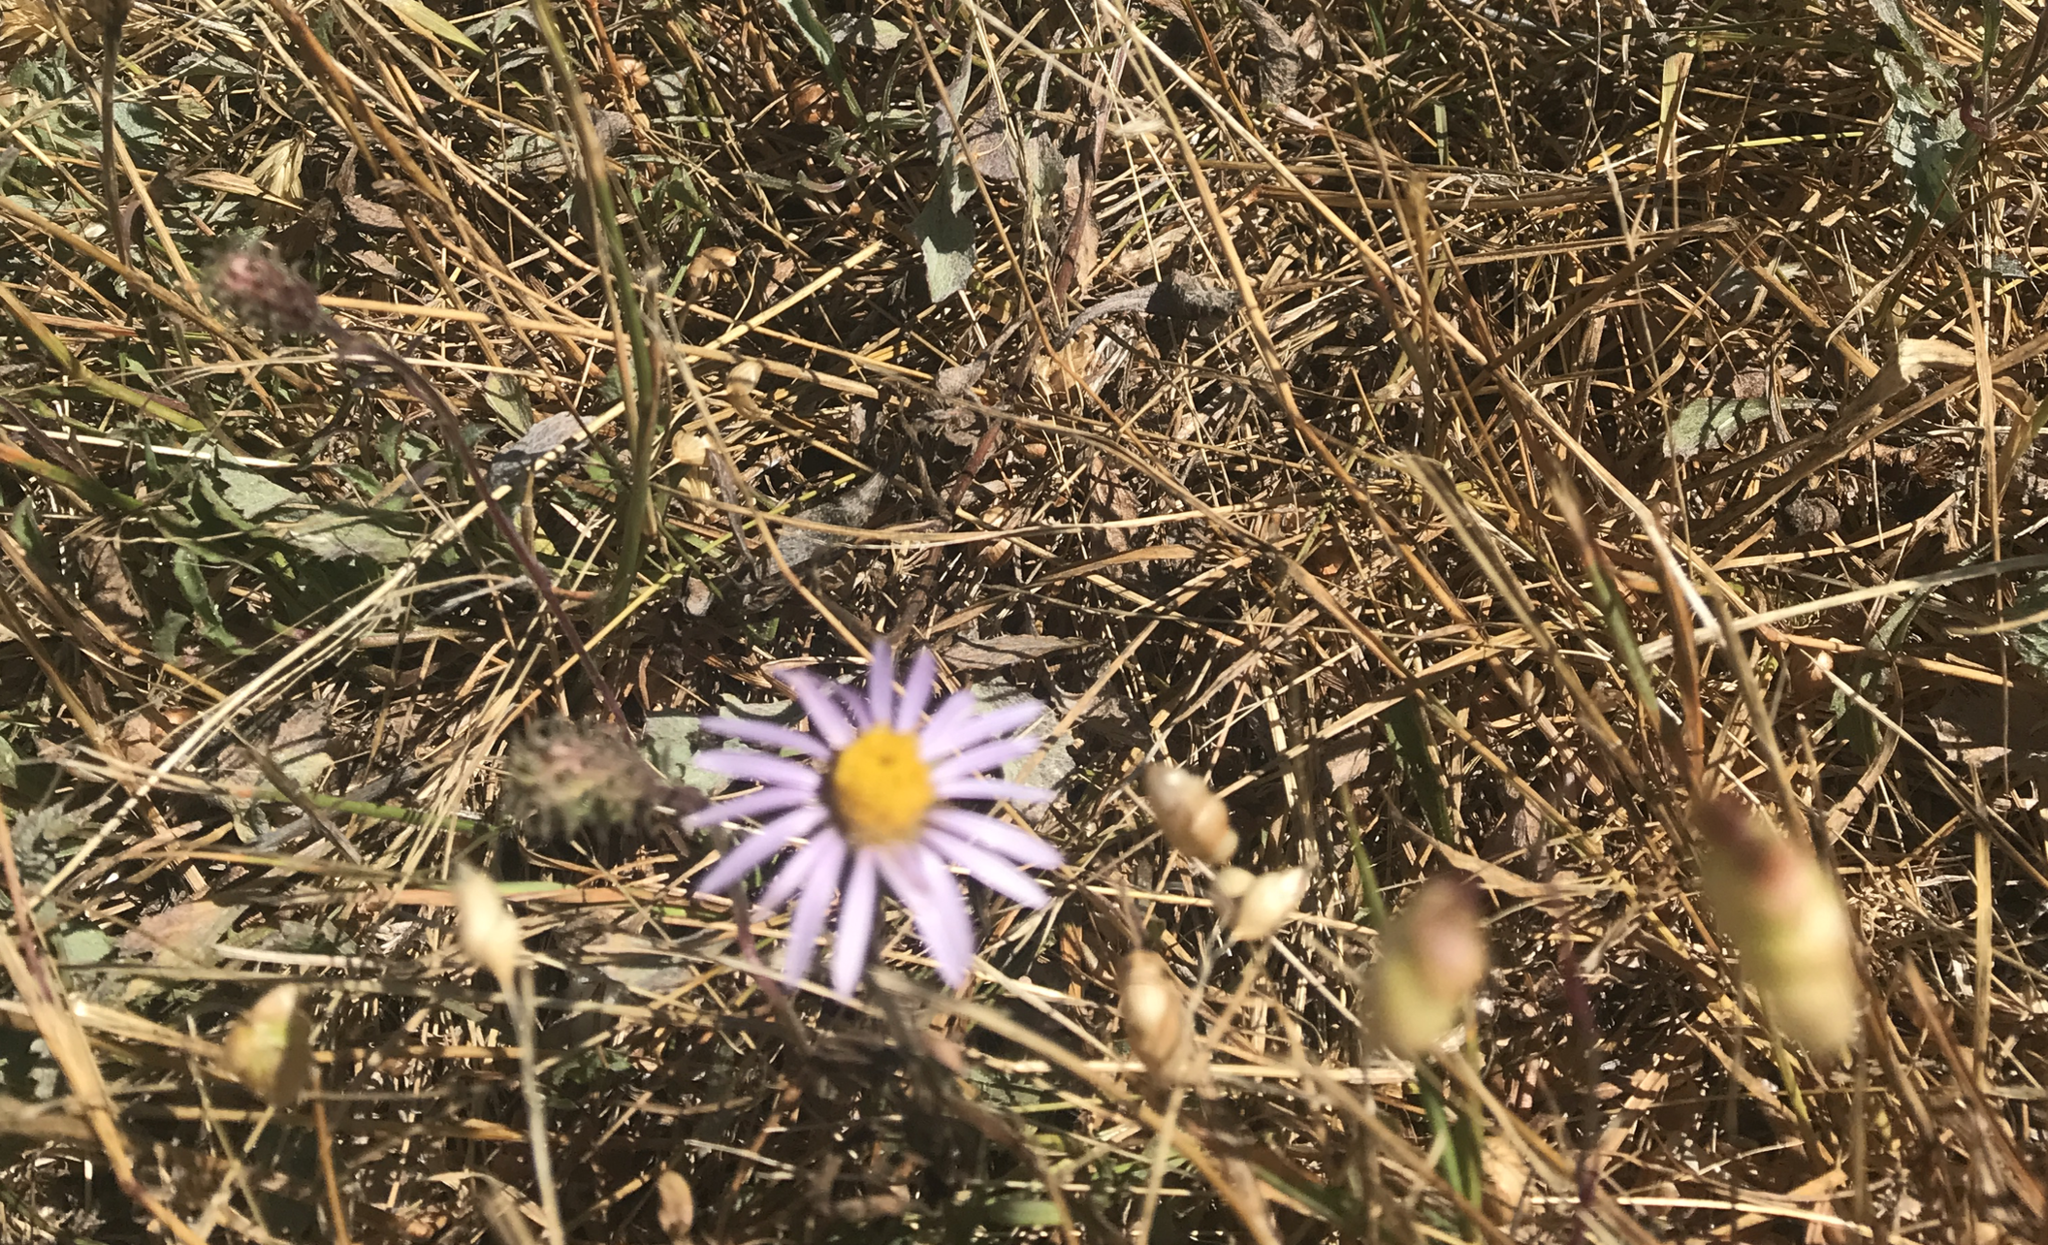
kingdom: Plantae
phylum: Tracheophyta
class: Magnoliopsida
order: Asterales
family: Asteraceae
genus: Corethrogyne
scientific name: Corethrogyne filaginifolia
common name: Sand-aster
